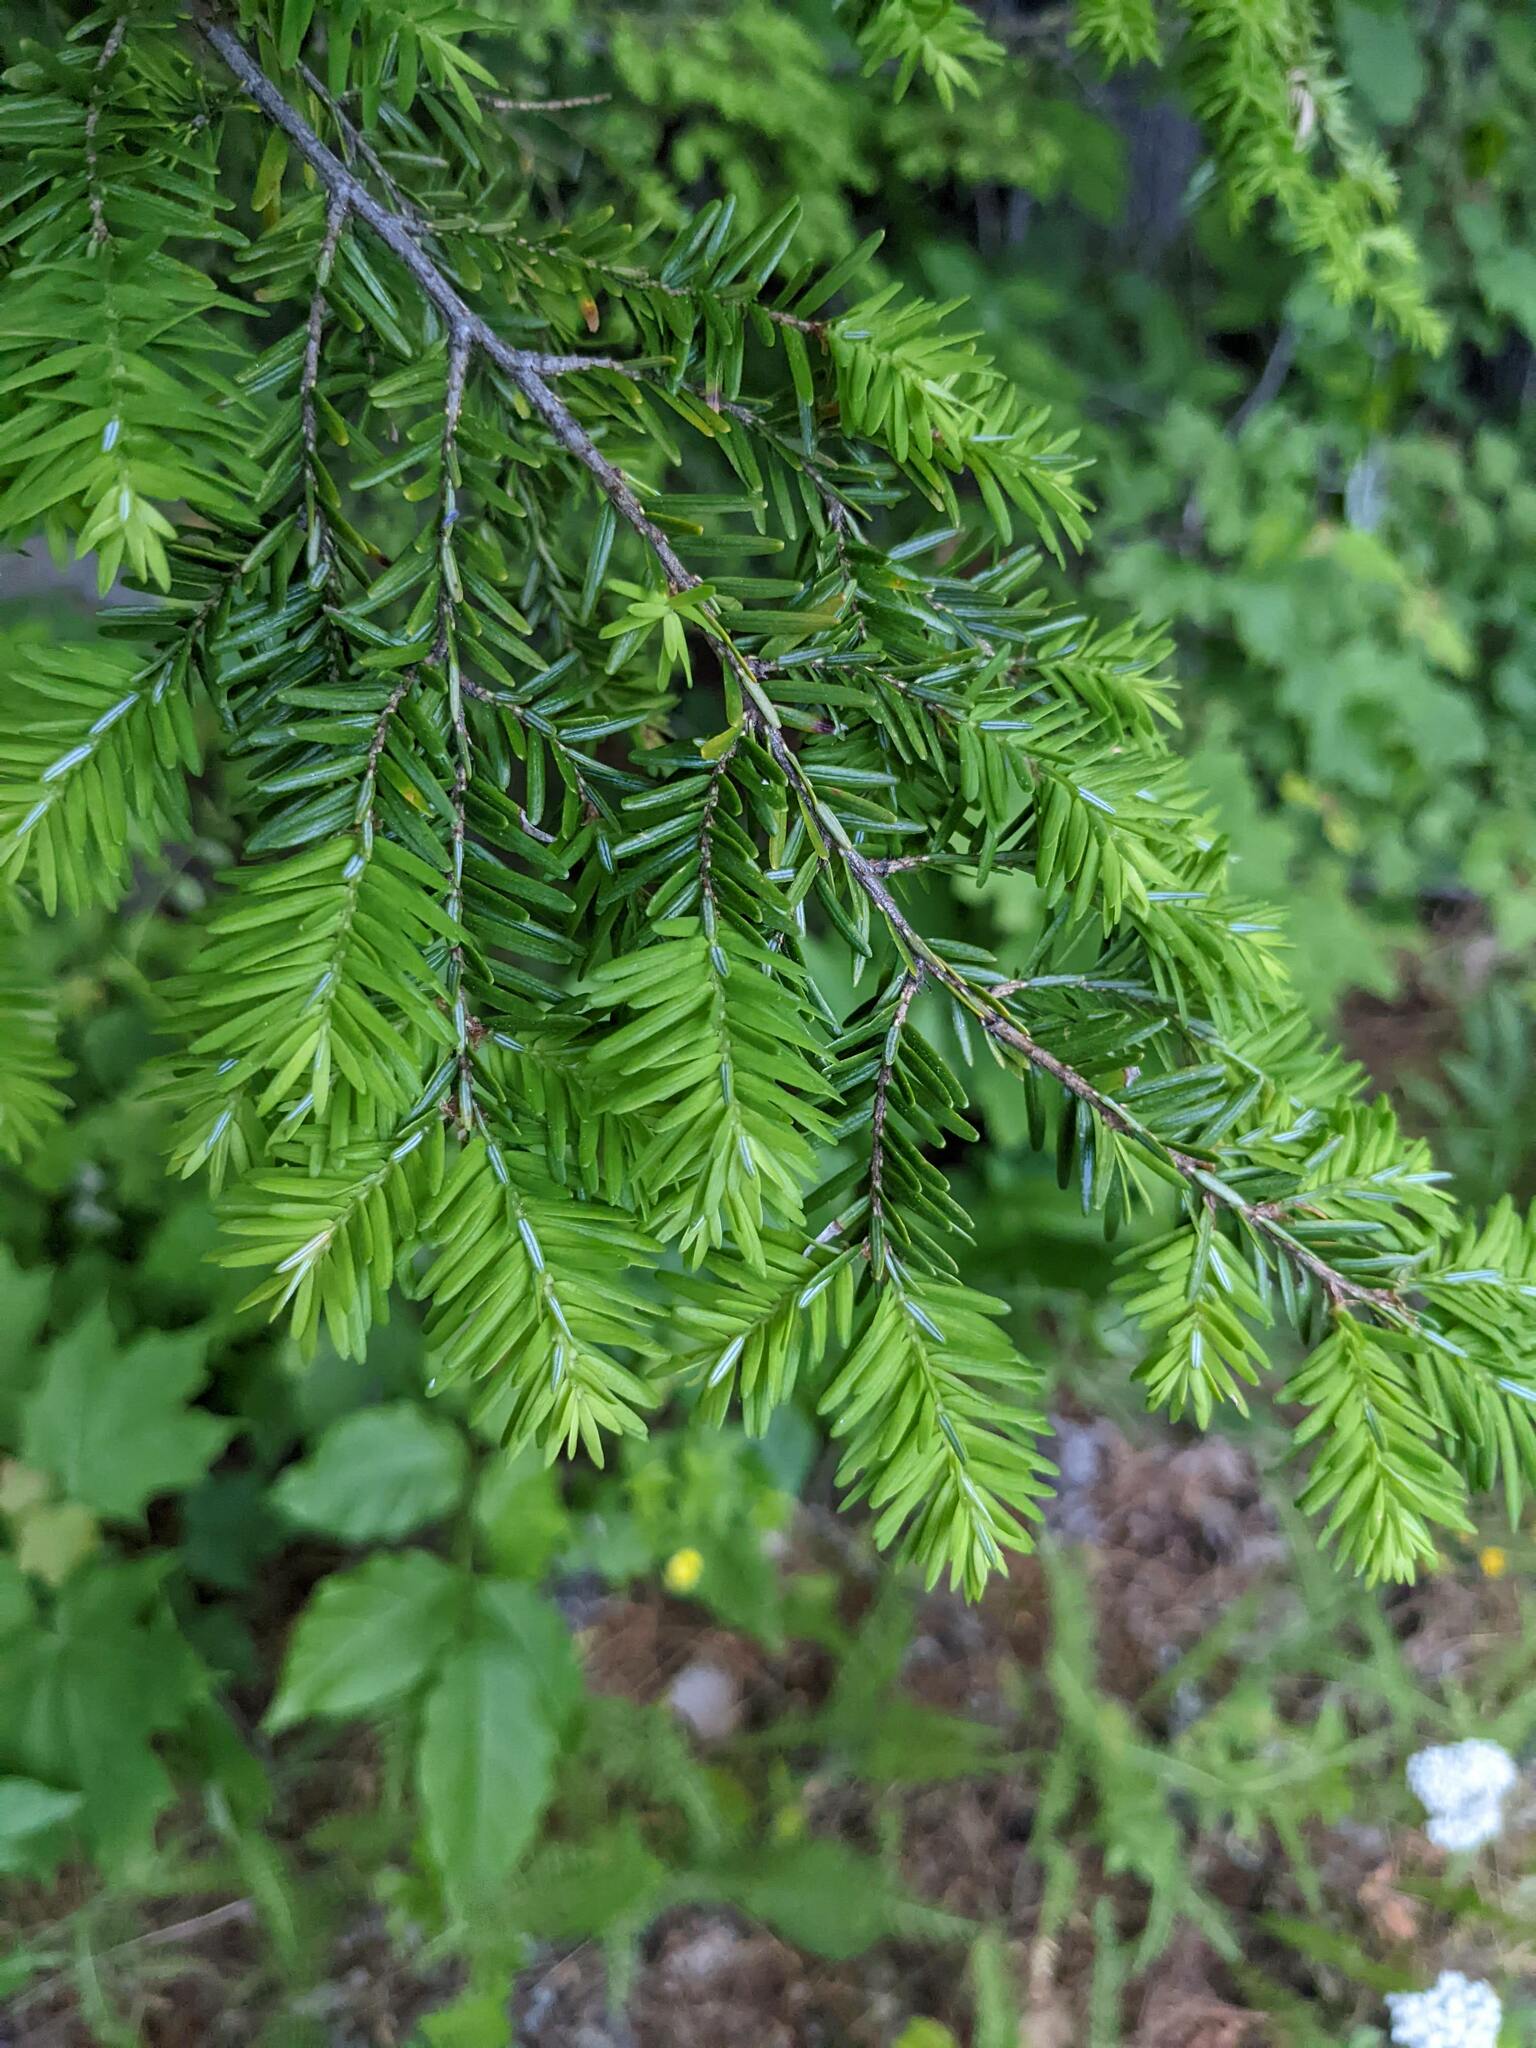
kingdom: Plantae
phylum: Tracheophyta
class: Pinopsida
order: Pinales
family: Pinaceae
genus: Tsuga
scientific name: Tsuga canadensis
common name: Eastern hemlock
